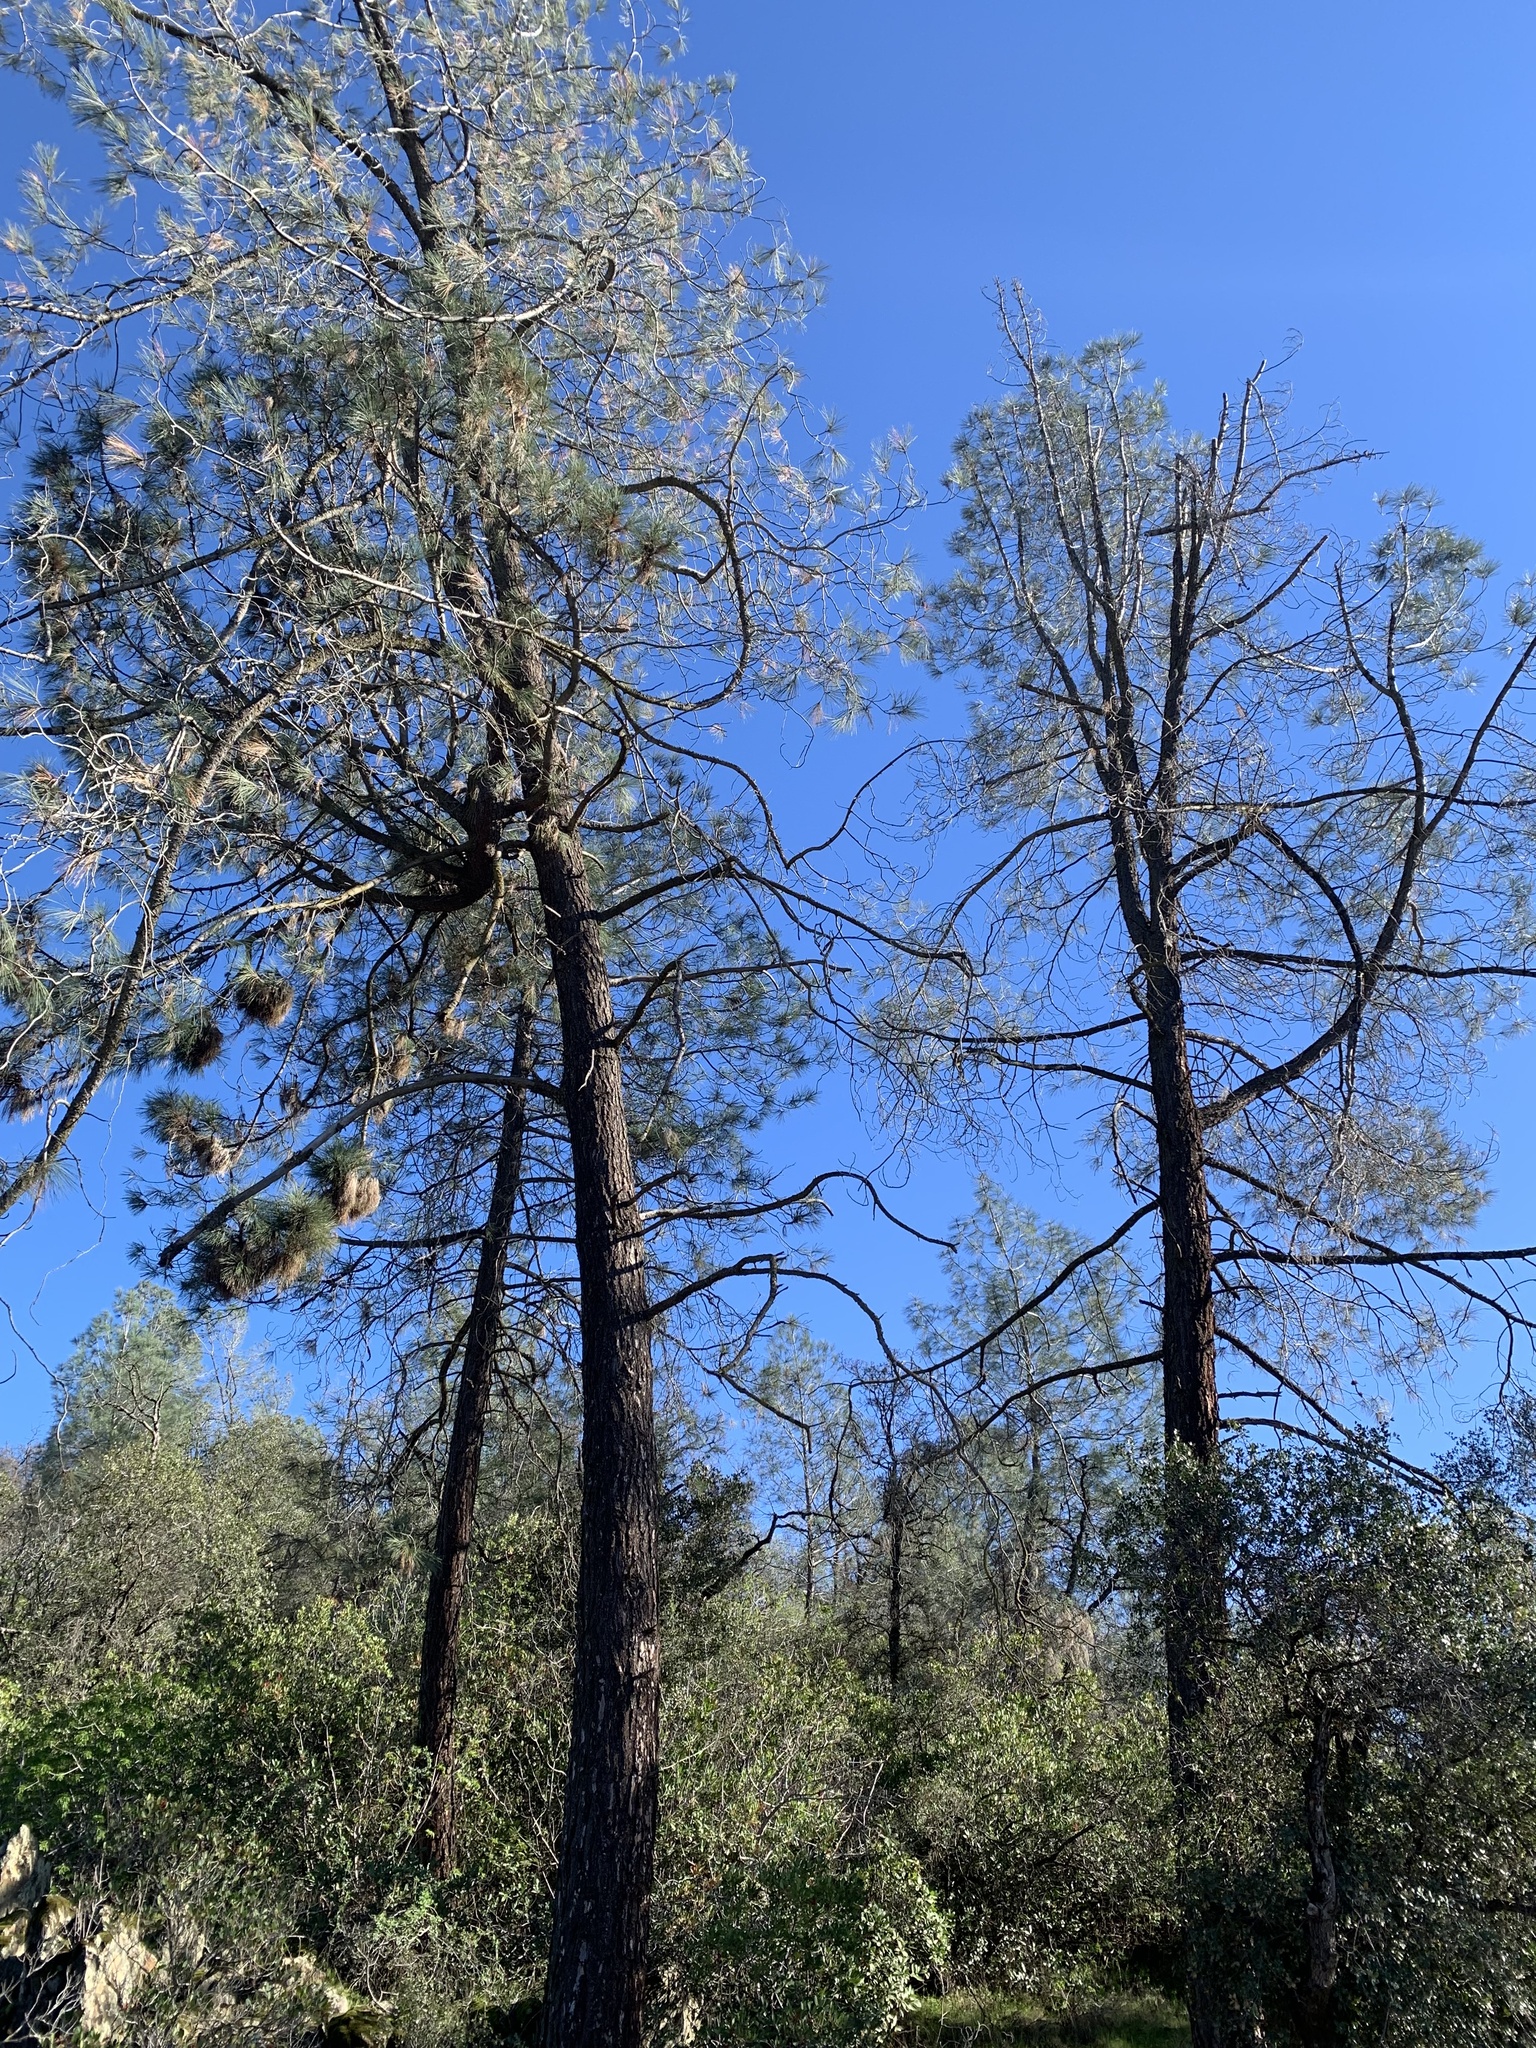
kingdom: Plantae
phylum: Tracheophyta
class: Pinopsida
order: Pinales
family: Pinaceae
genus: Pinus
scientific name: Pinus sabiniana
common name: Bull pine
